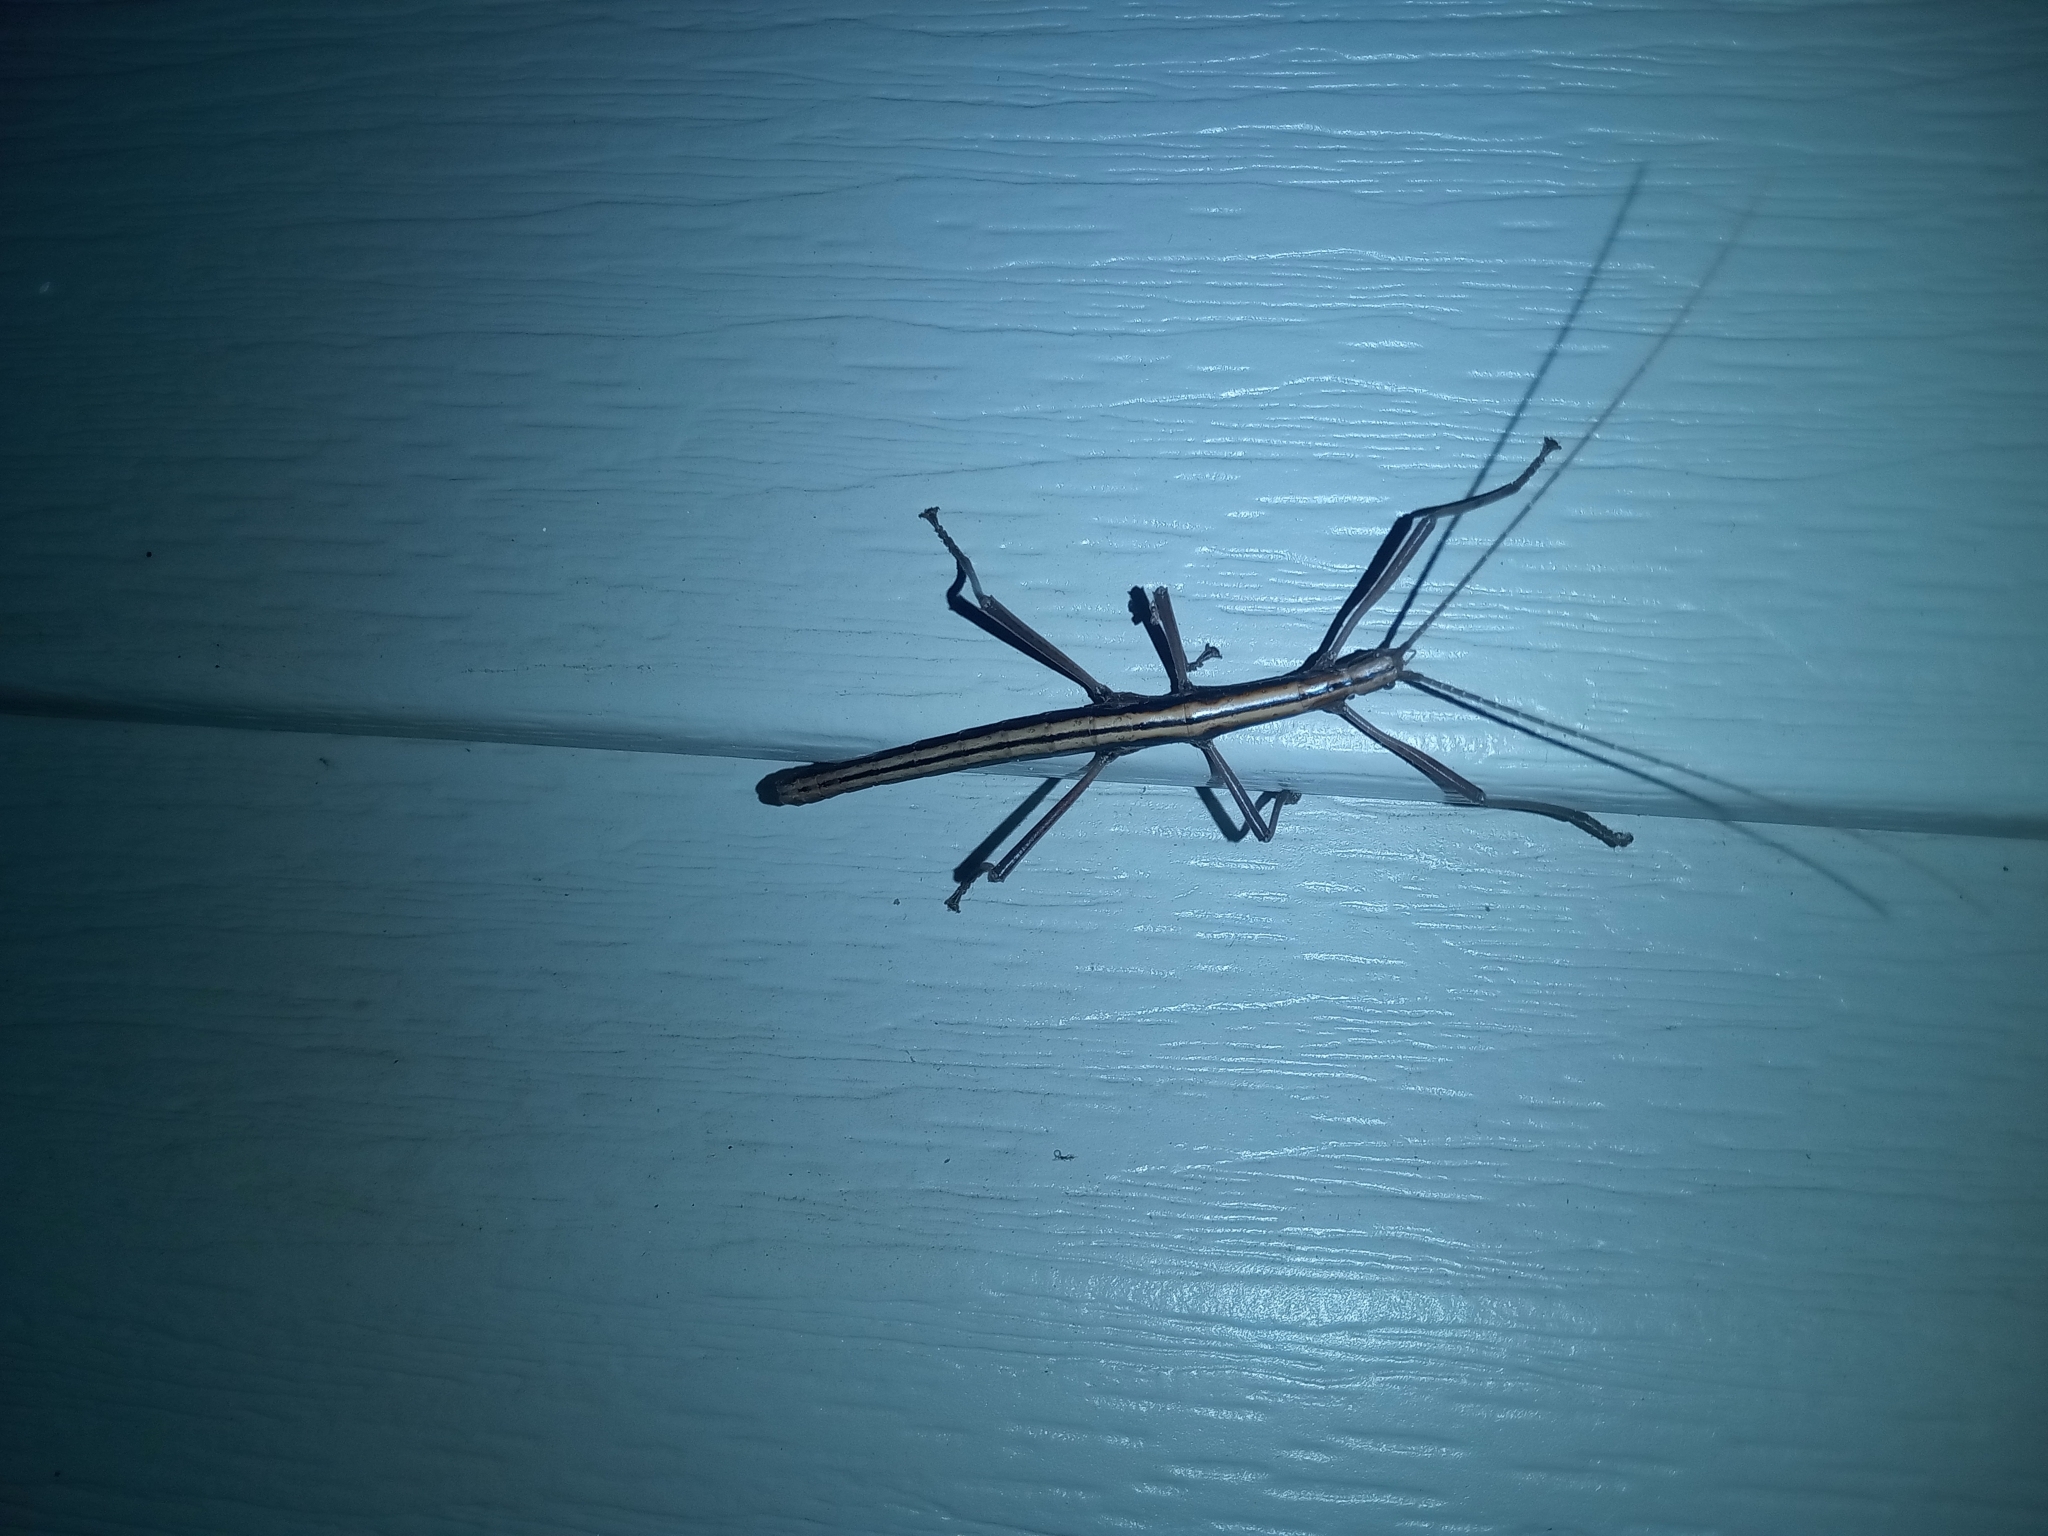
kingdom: Animalia
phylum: Arthropoda
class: Insecta
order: Phasmida
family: Pseudophasmatidae
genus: Anisomorpha
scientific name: Anisomorpha buprestoides
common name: Florida stick insect
